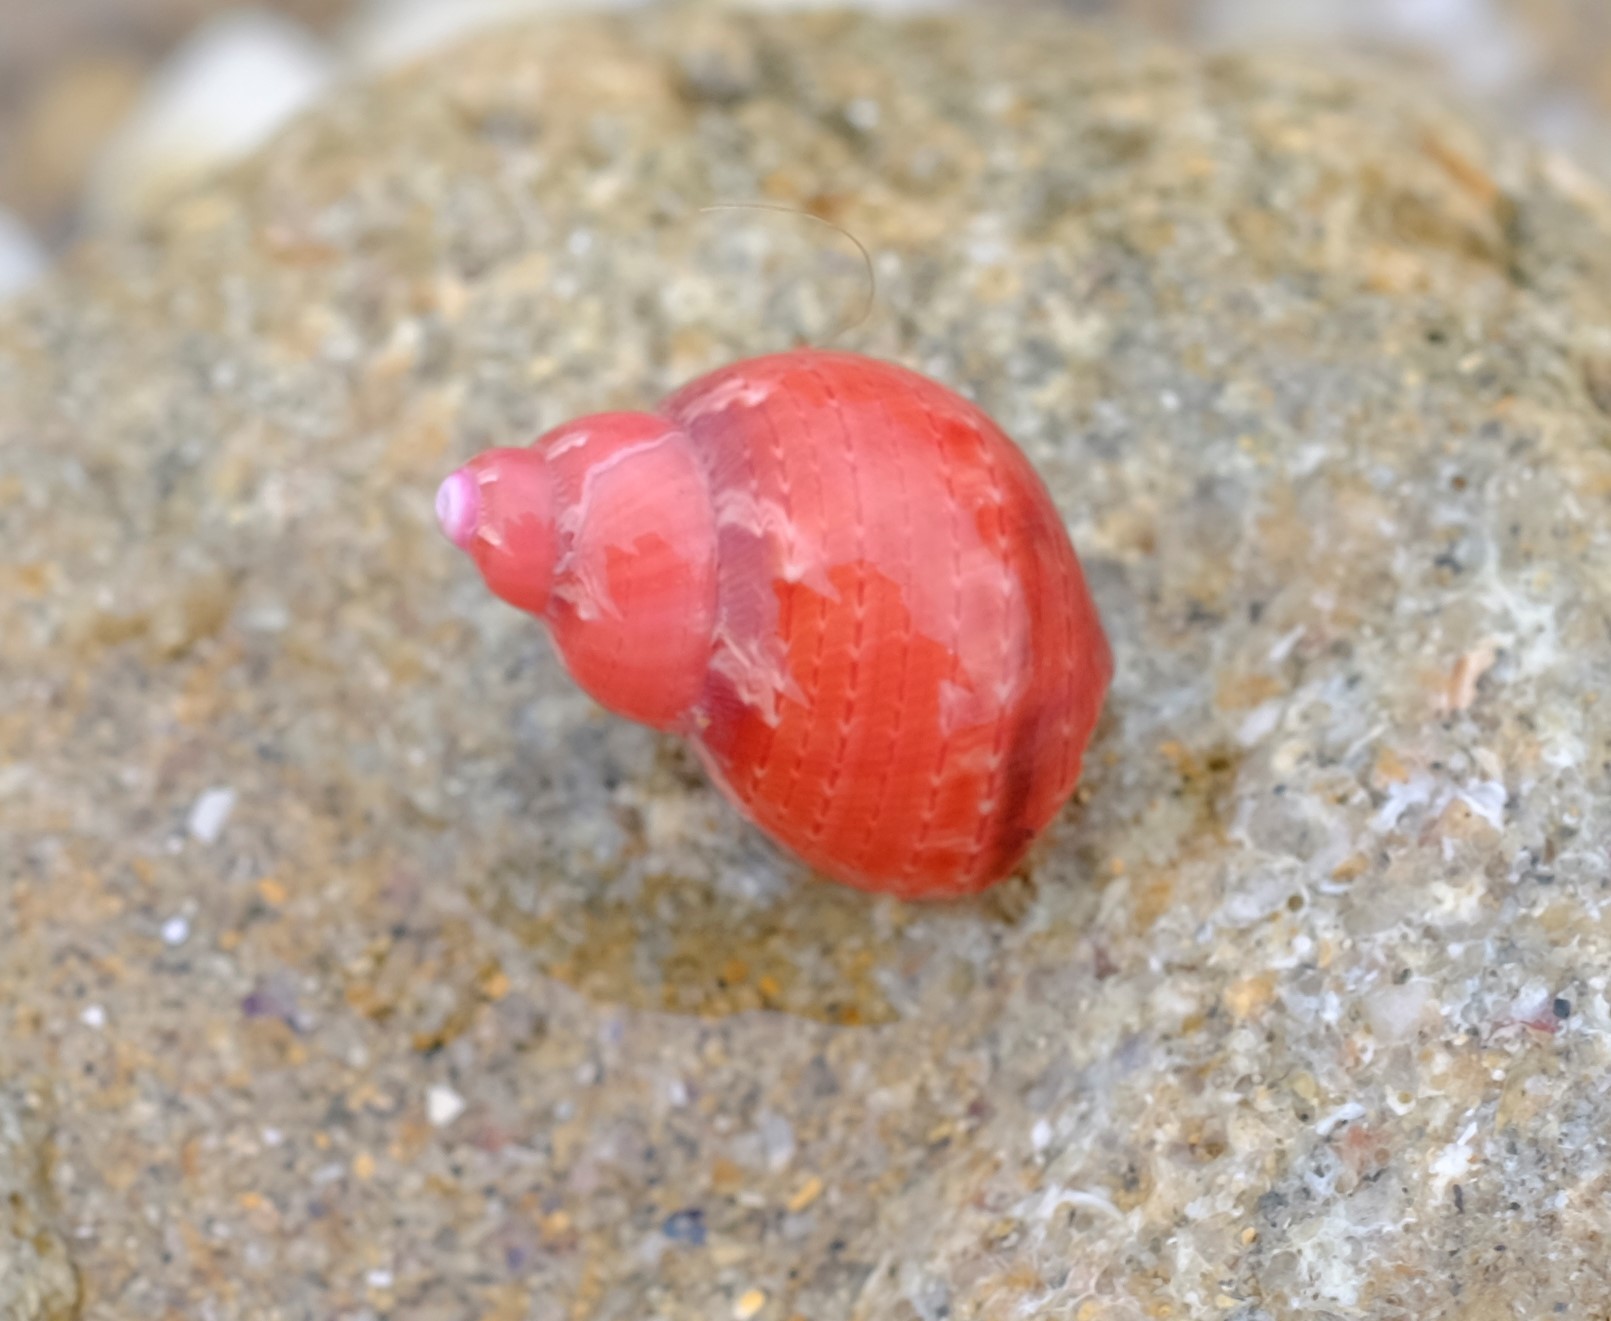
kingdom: Animalia
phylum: Mollusca
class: Gastropoda
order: Trochida
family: Phasianellidae
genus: Phasianella
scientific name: Phasianella ventricosa
